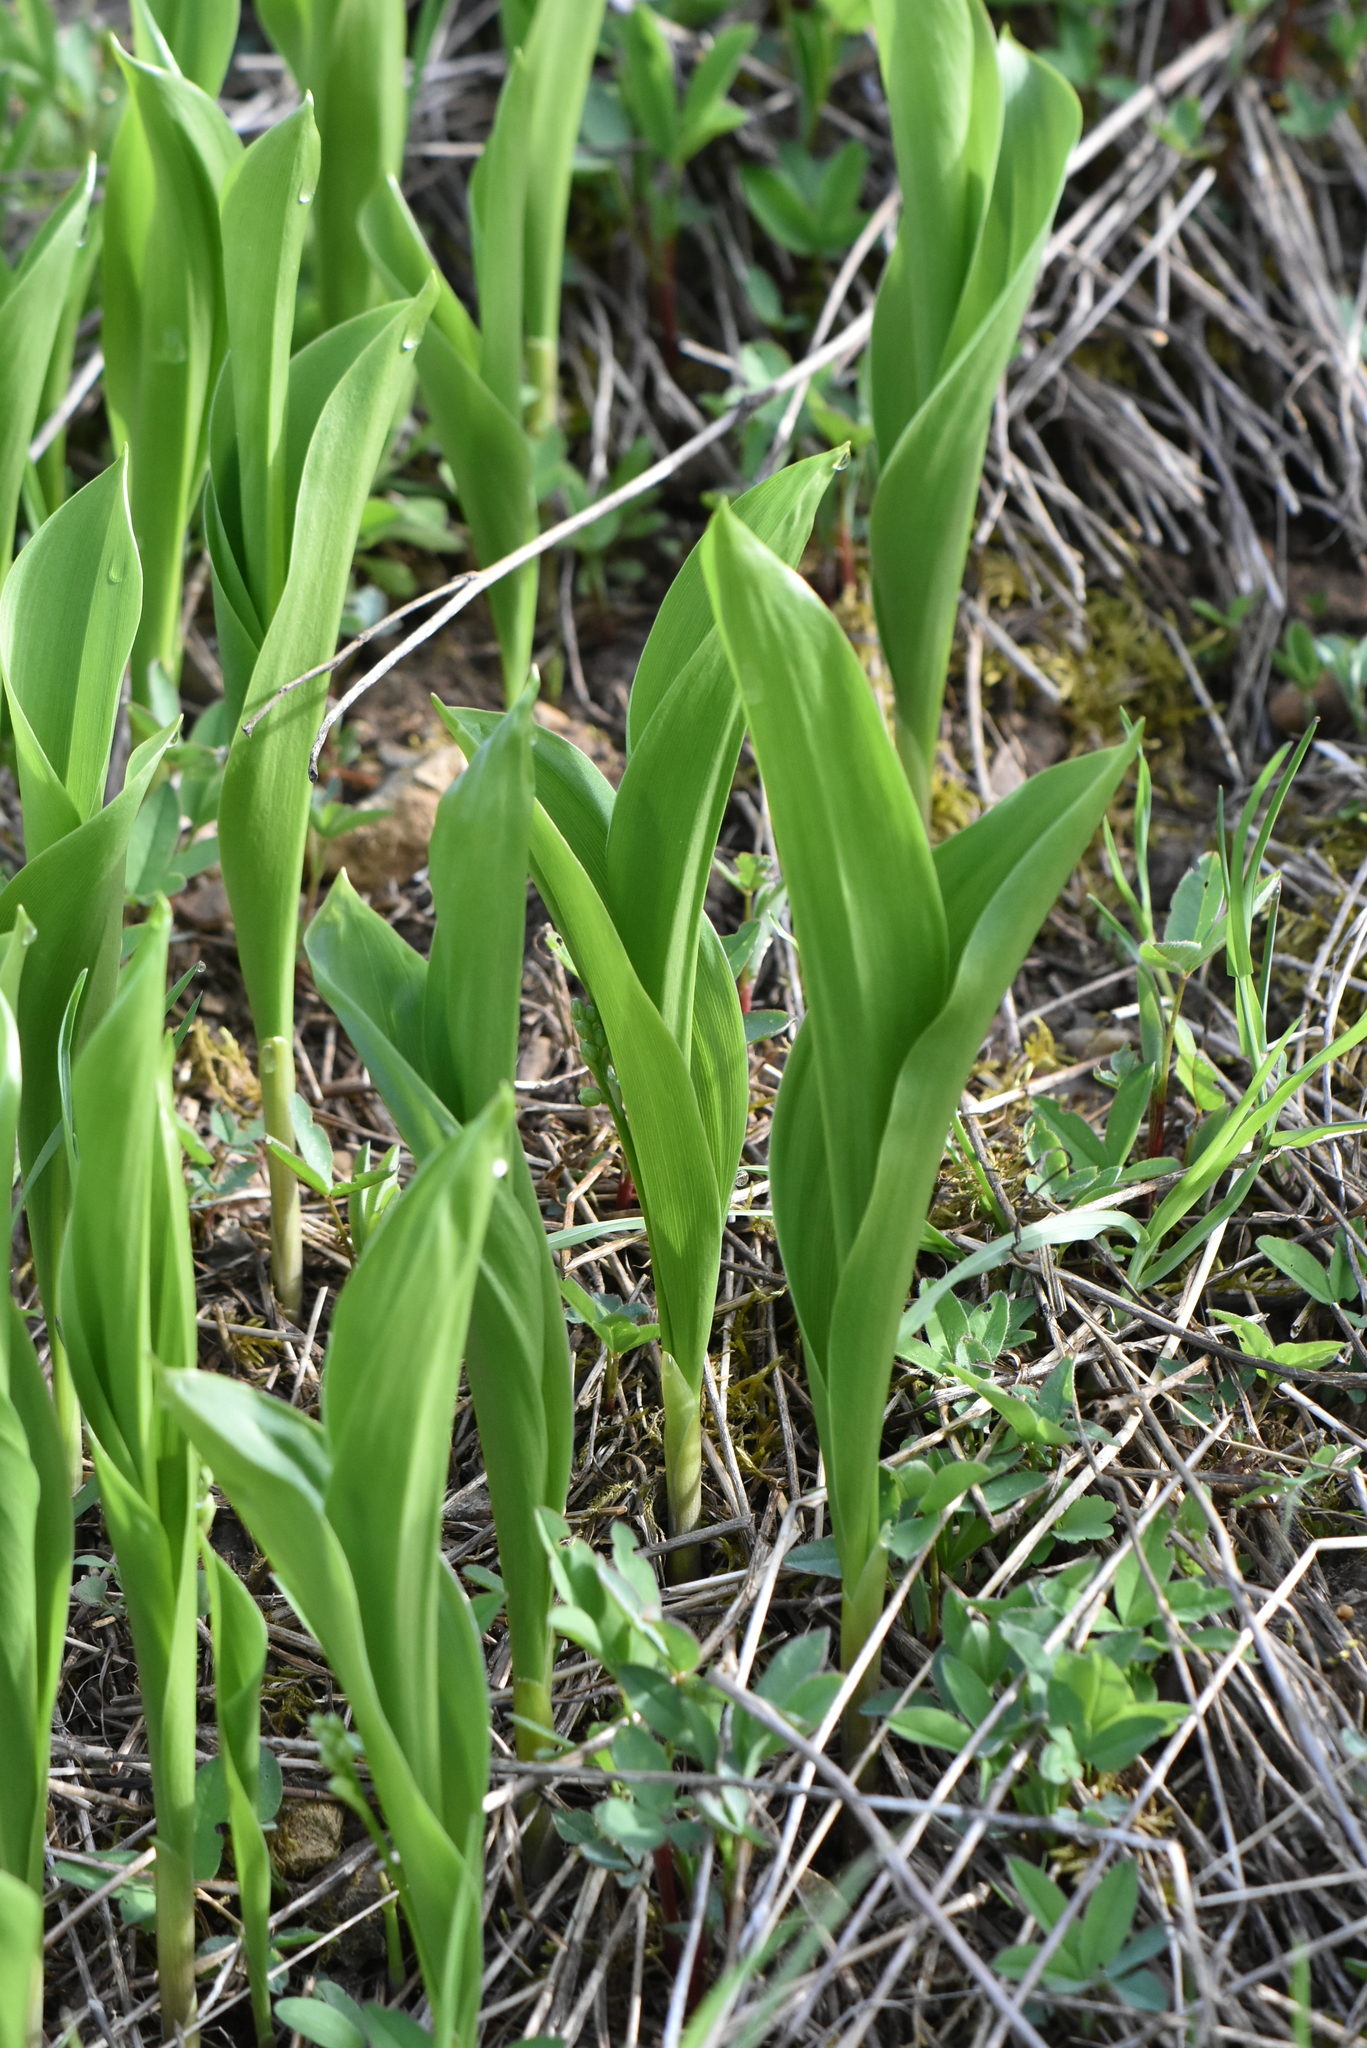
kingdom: Plantae
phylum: Tracheophyta
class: Liliopsida
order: Asparagales
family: Asparagaceae
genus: Convallaria
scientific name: Convallaria majalis
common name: Lily-of-the-valley
